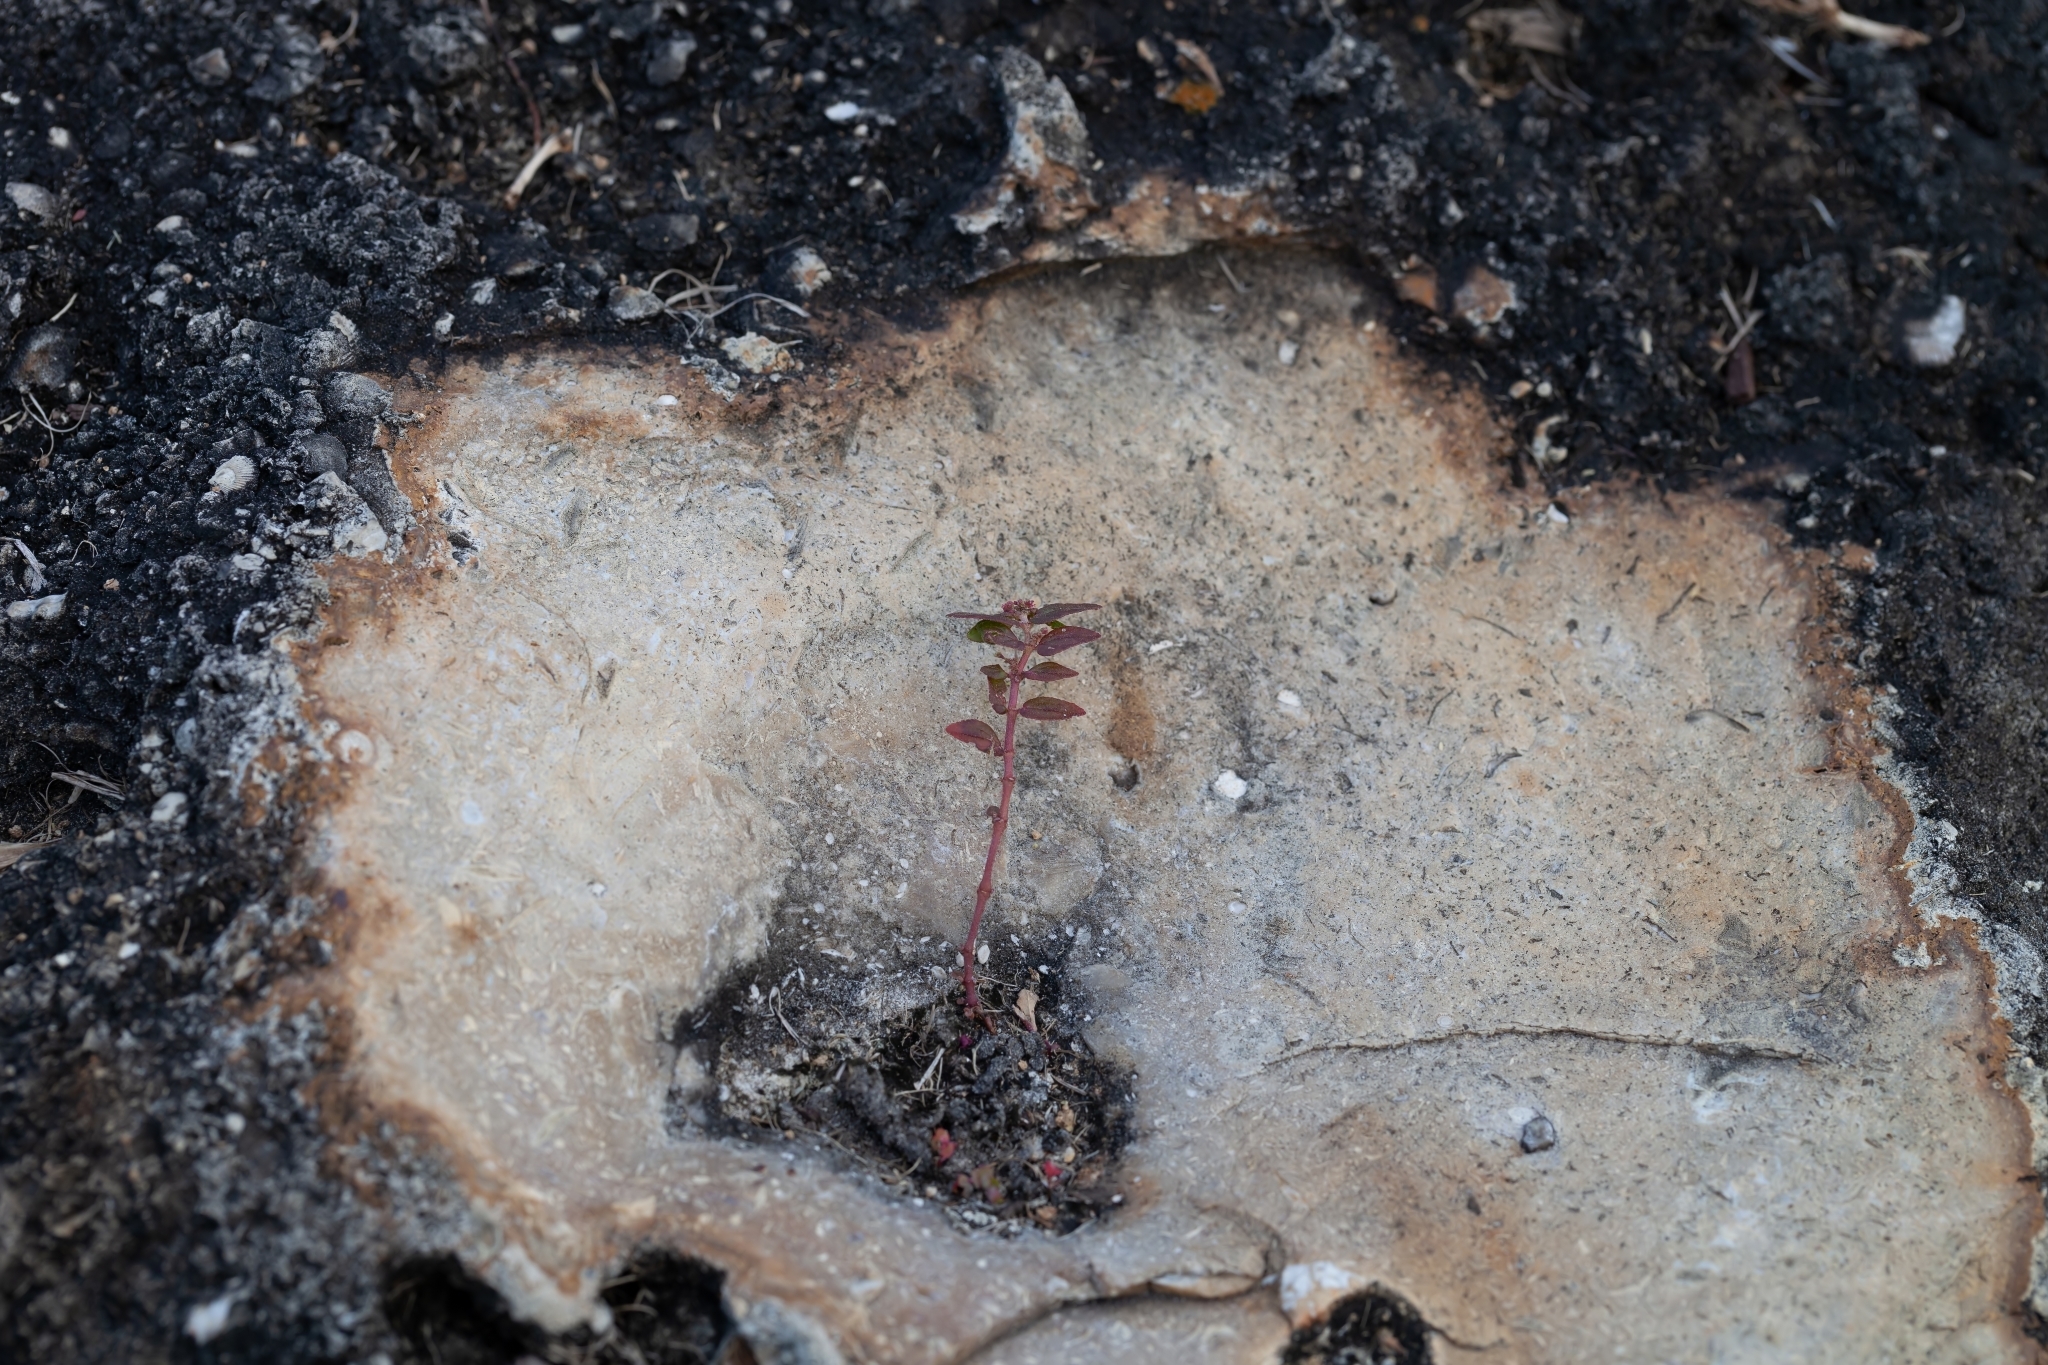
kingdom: Plantae
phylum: Tracheophyta
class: Magnoliopsida
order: Malpighiales
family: Euphorbiaceae
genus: Euphorbia
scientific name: Euphorbia hirta
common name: Pillpod sandmat
